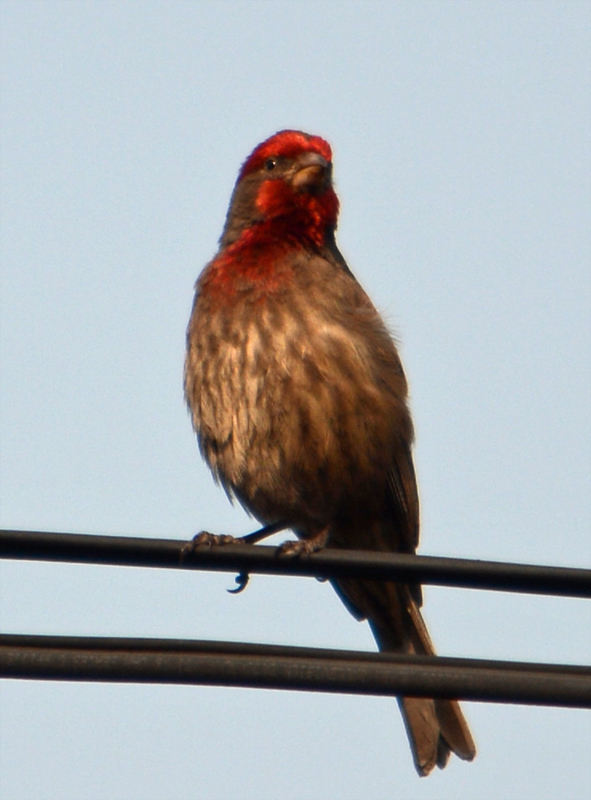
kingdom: Animalia
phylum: Chordata
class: Aves
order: Passeriformes
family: Fringillidae
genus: Haemorhous
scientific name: Haemorhous mexicanus
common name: House finch
